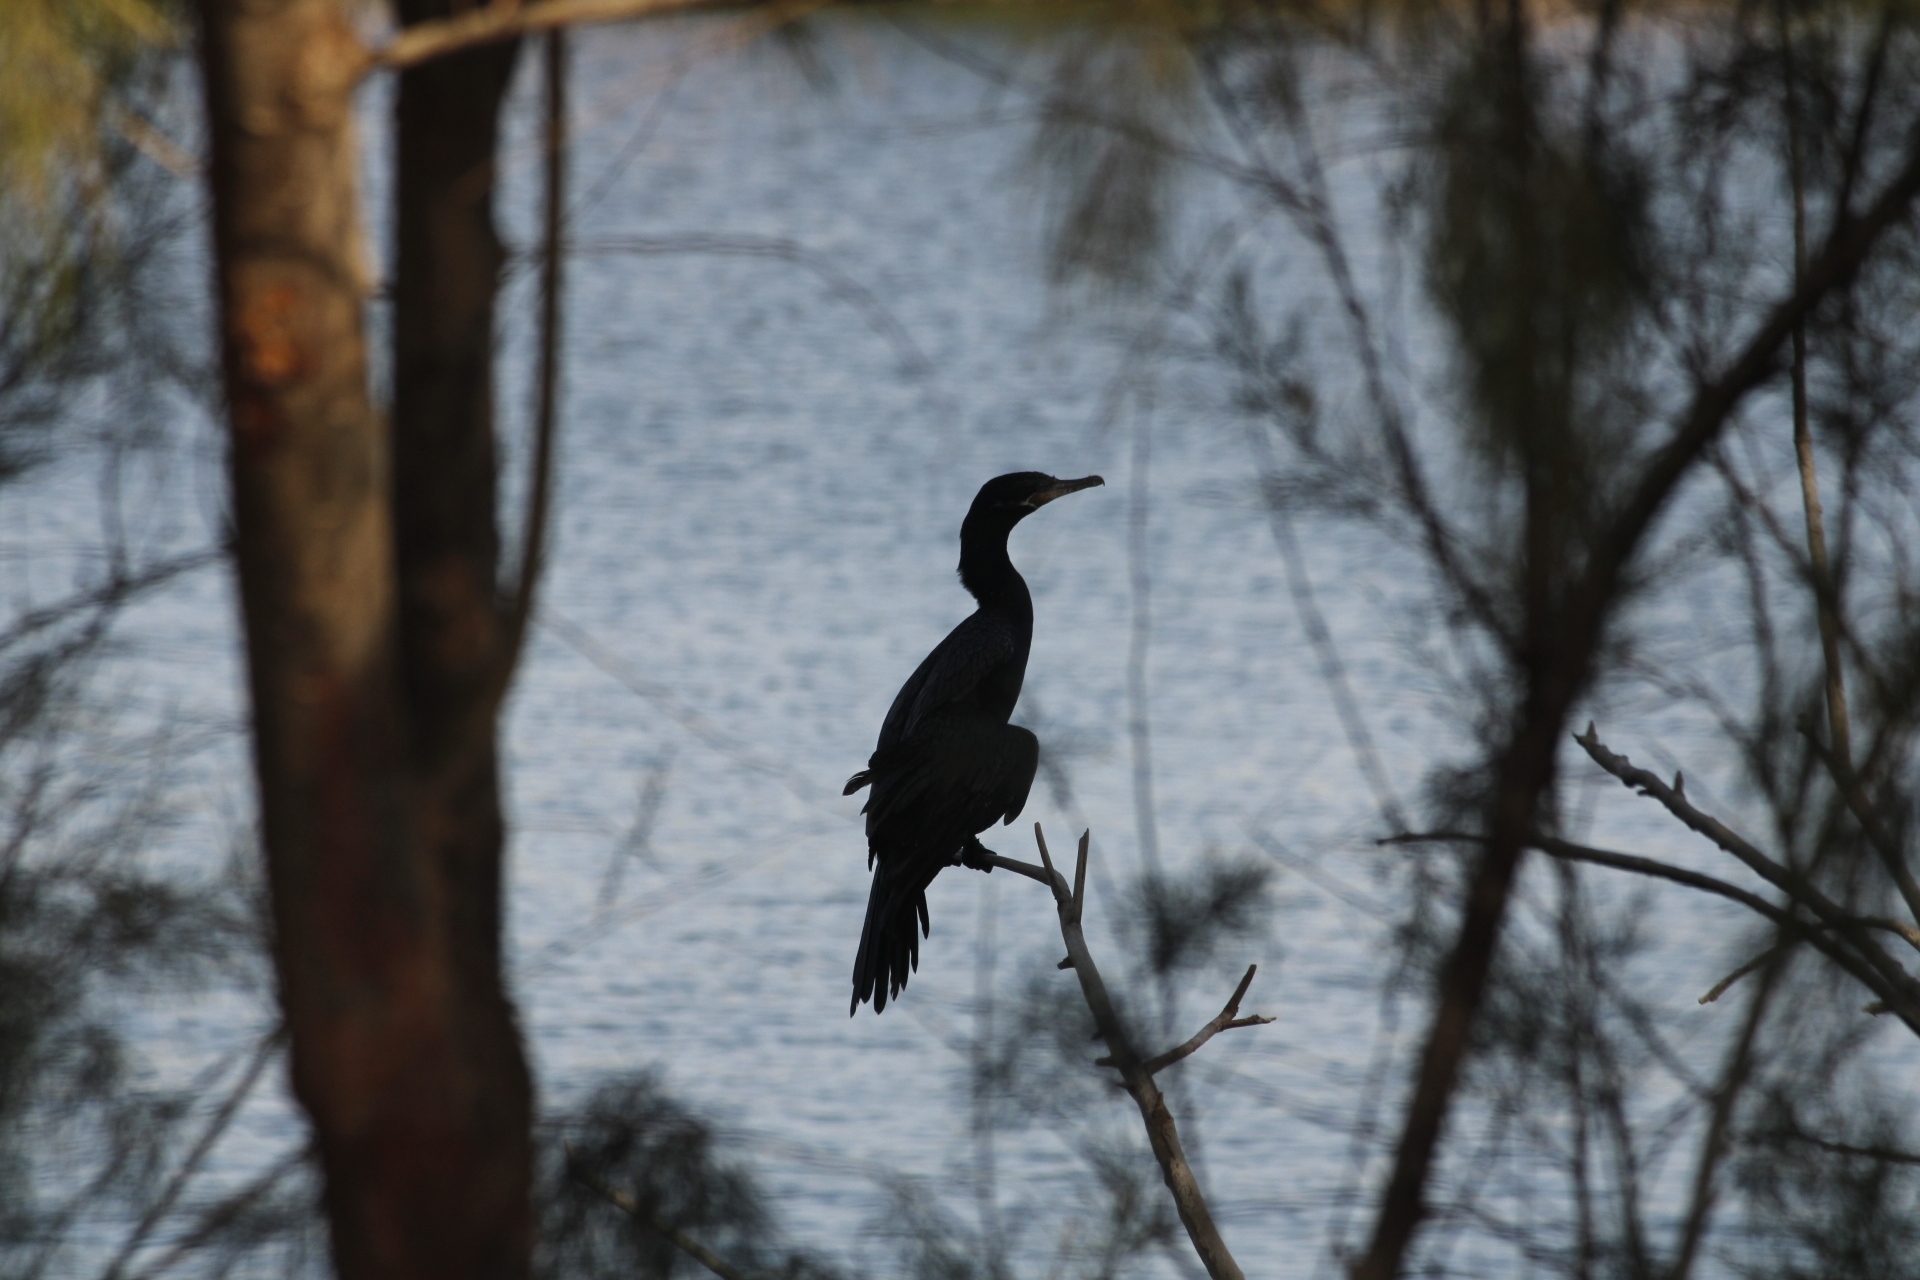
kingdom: Animalia
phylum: Chordata
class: Aves
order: Suliformes
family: Phalacrocoracidae
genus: Phalacrocorax
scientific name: Phalacrocorax brasilianus
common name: Neotropic cormorant
